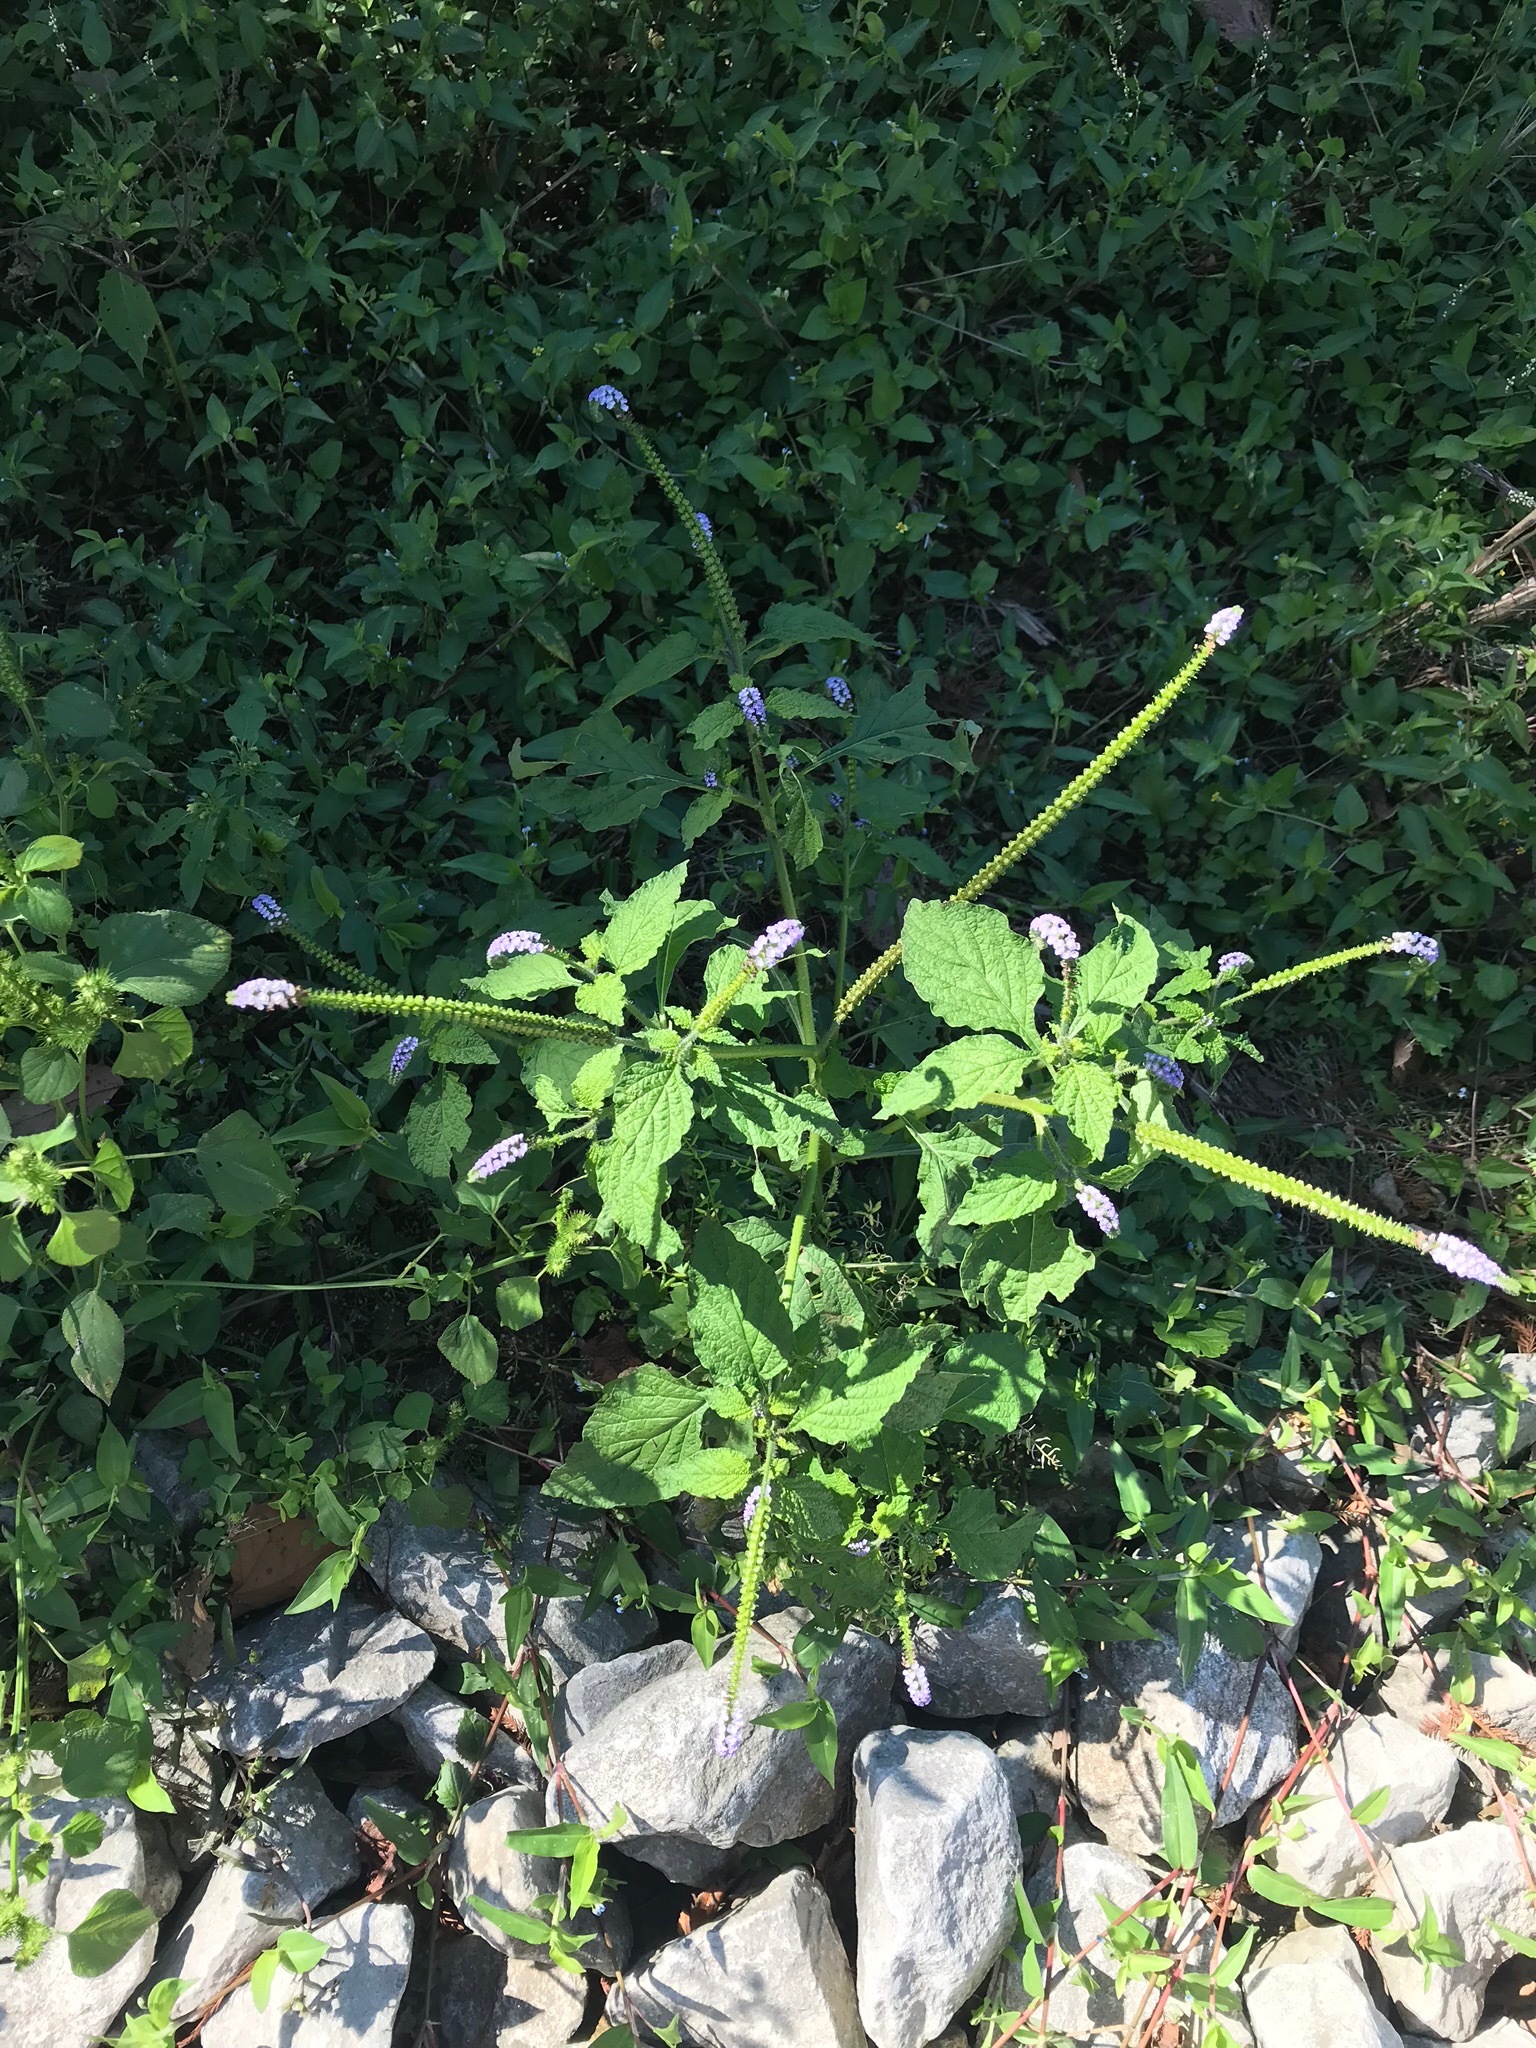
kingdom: Plantae
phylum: Tracheophyta
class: Magnoliopsida
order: Boraginales
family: Heliotropiaceae
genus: Heliotropium
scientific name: Heliotropium indicum
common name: Indian heliotrope
